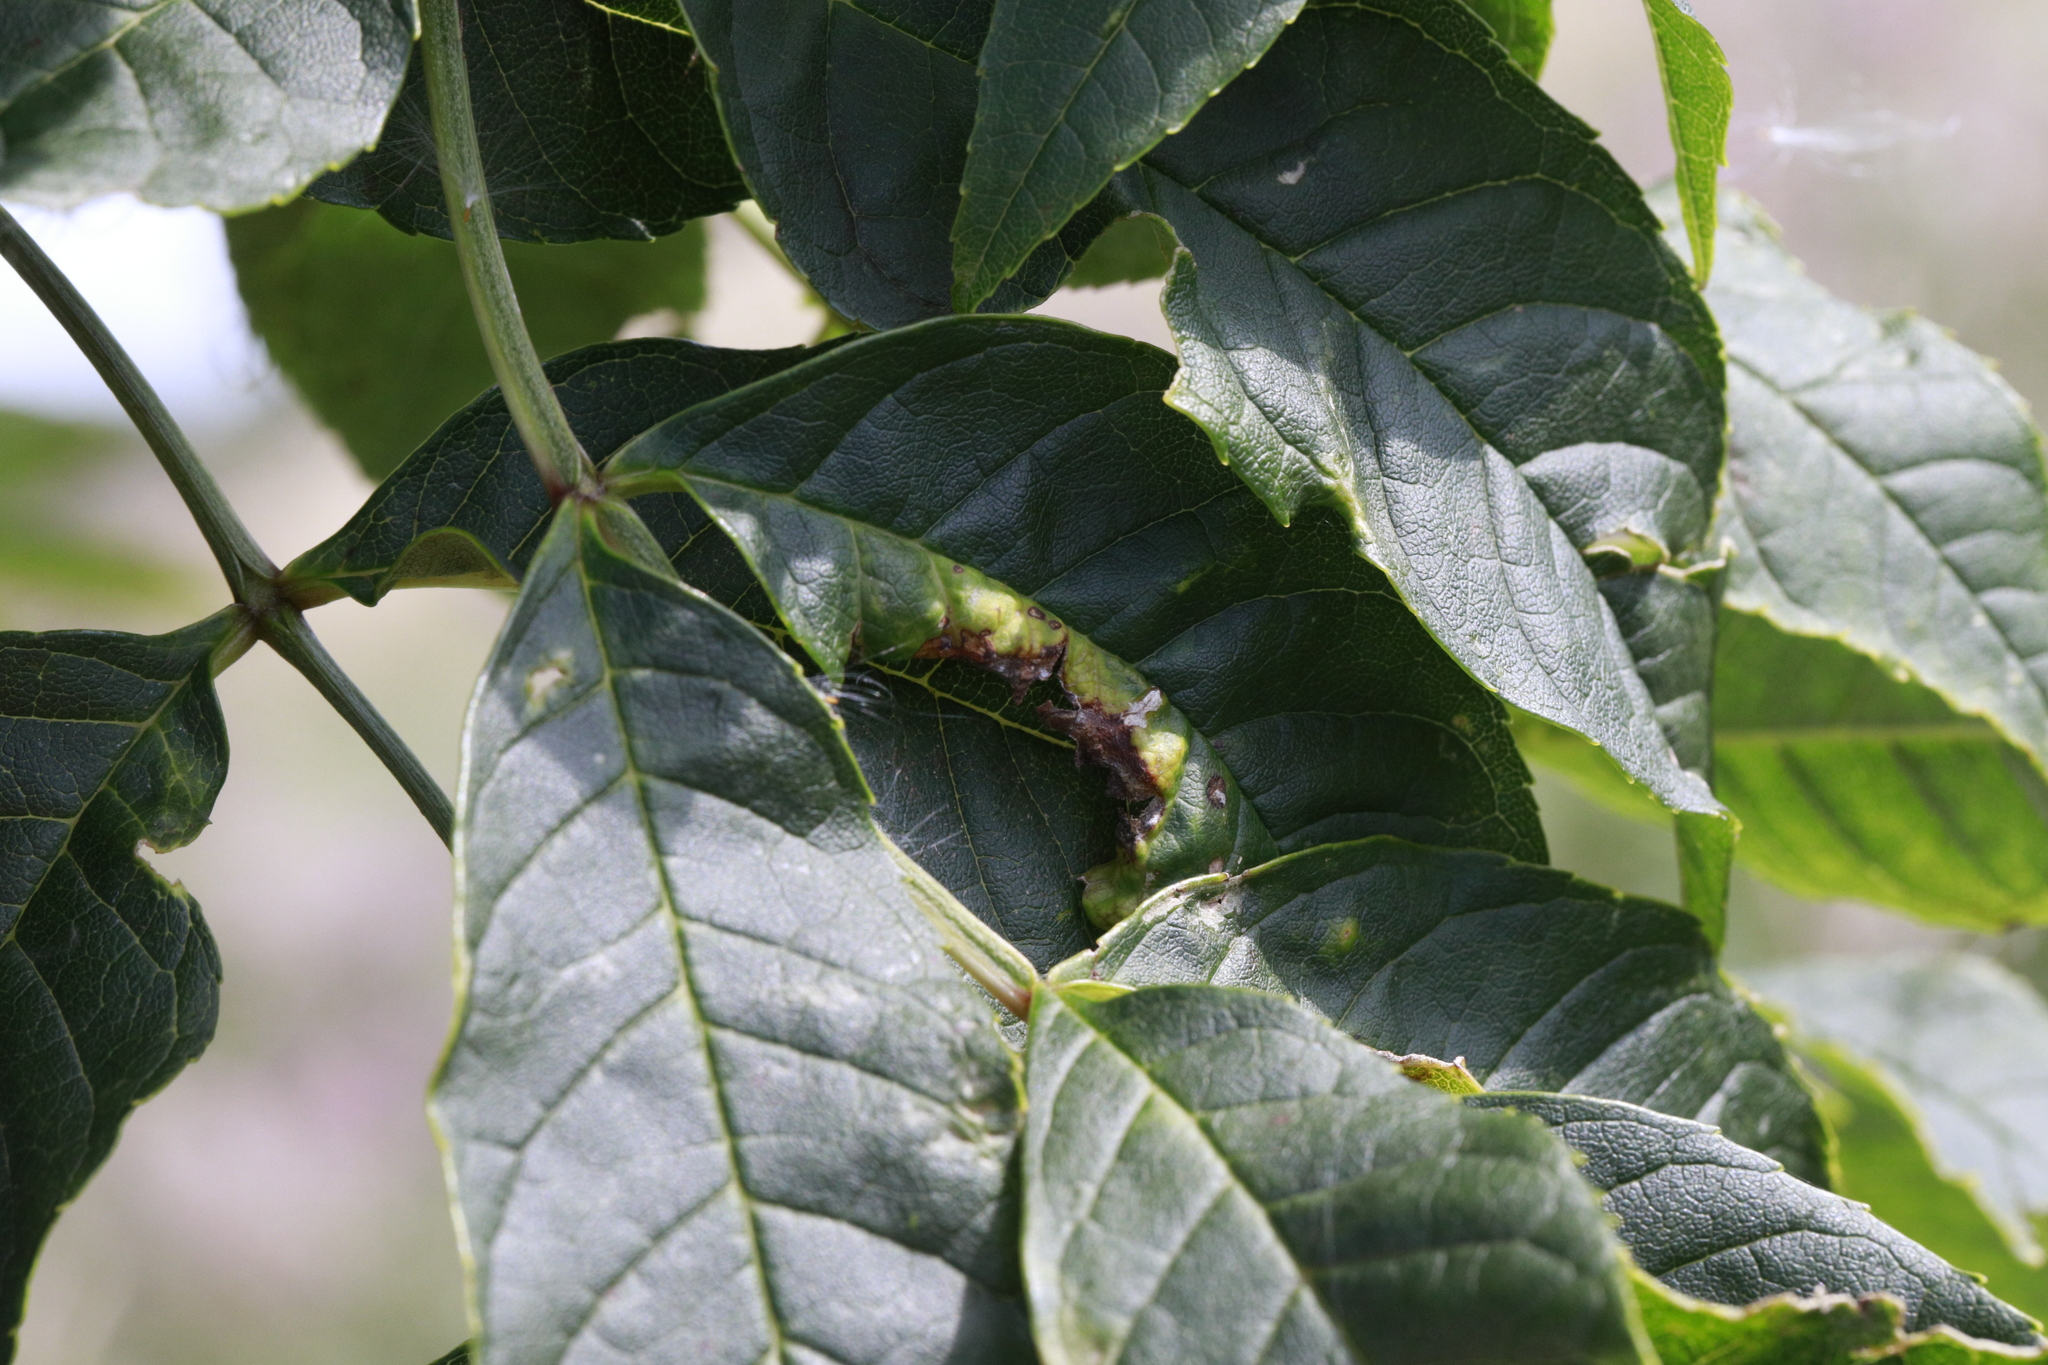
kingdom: Animalia
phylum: Arthropoda
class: Insecta
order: Hemiptera
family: Liviidae
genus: Psyllopsis
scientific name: Psyllopsis fraxini
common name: Jumping plant louse
